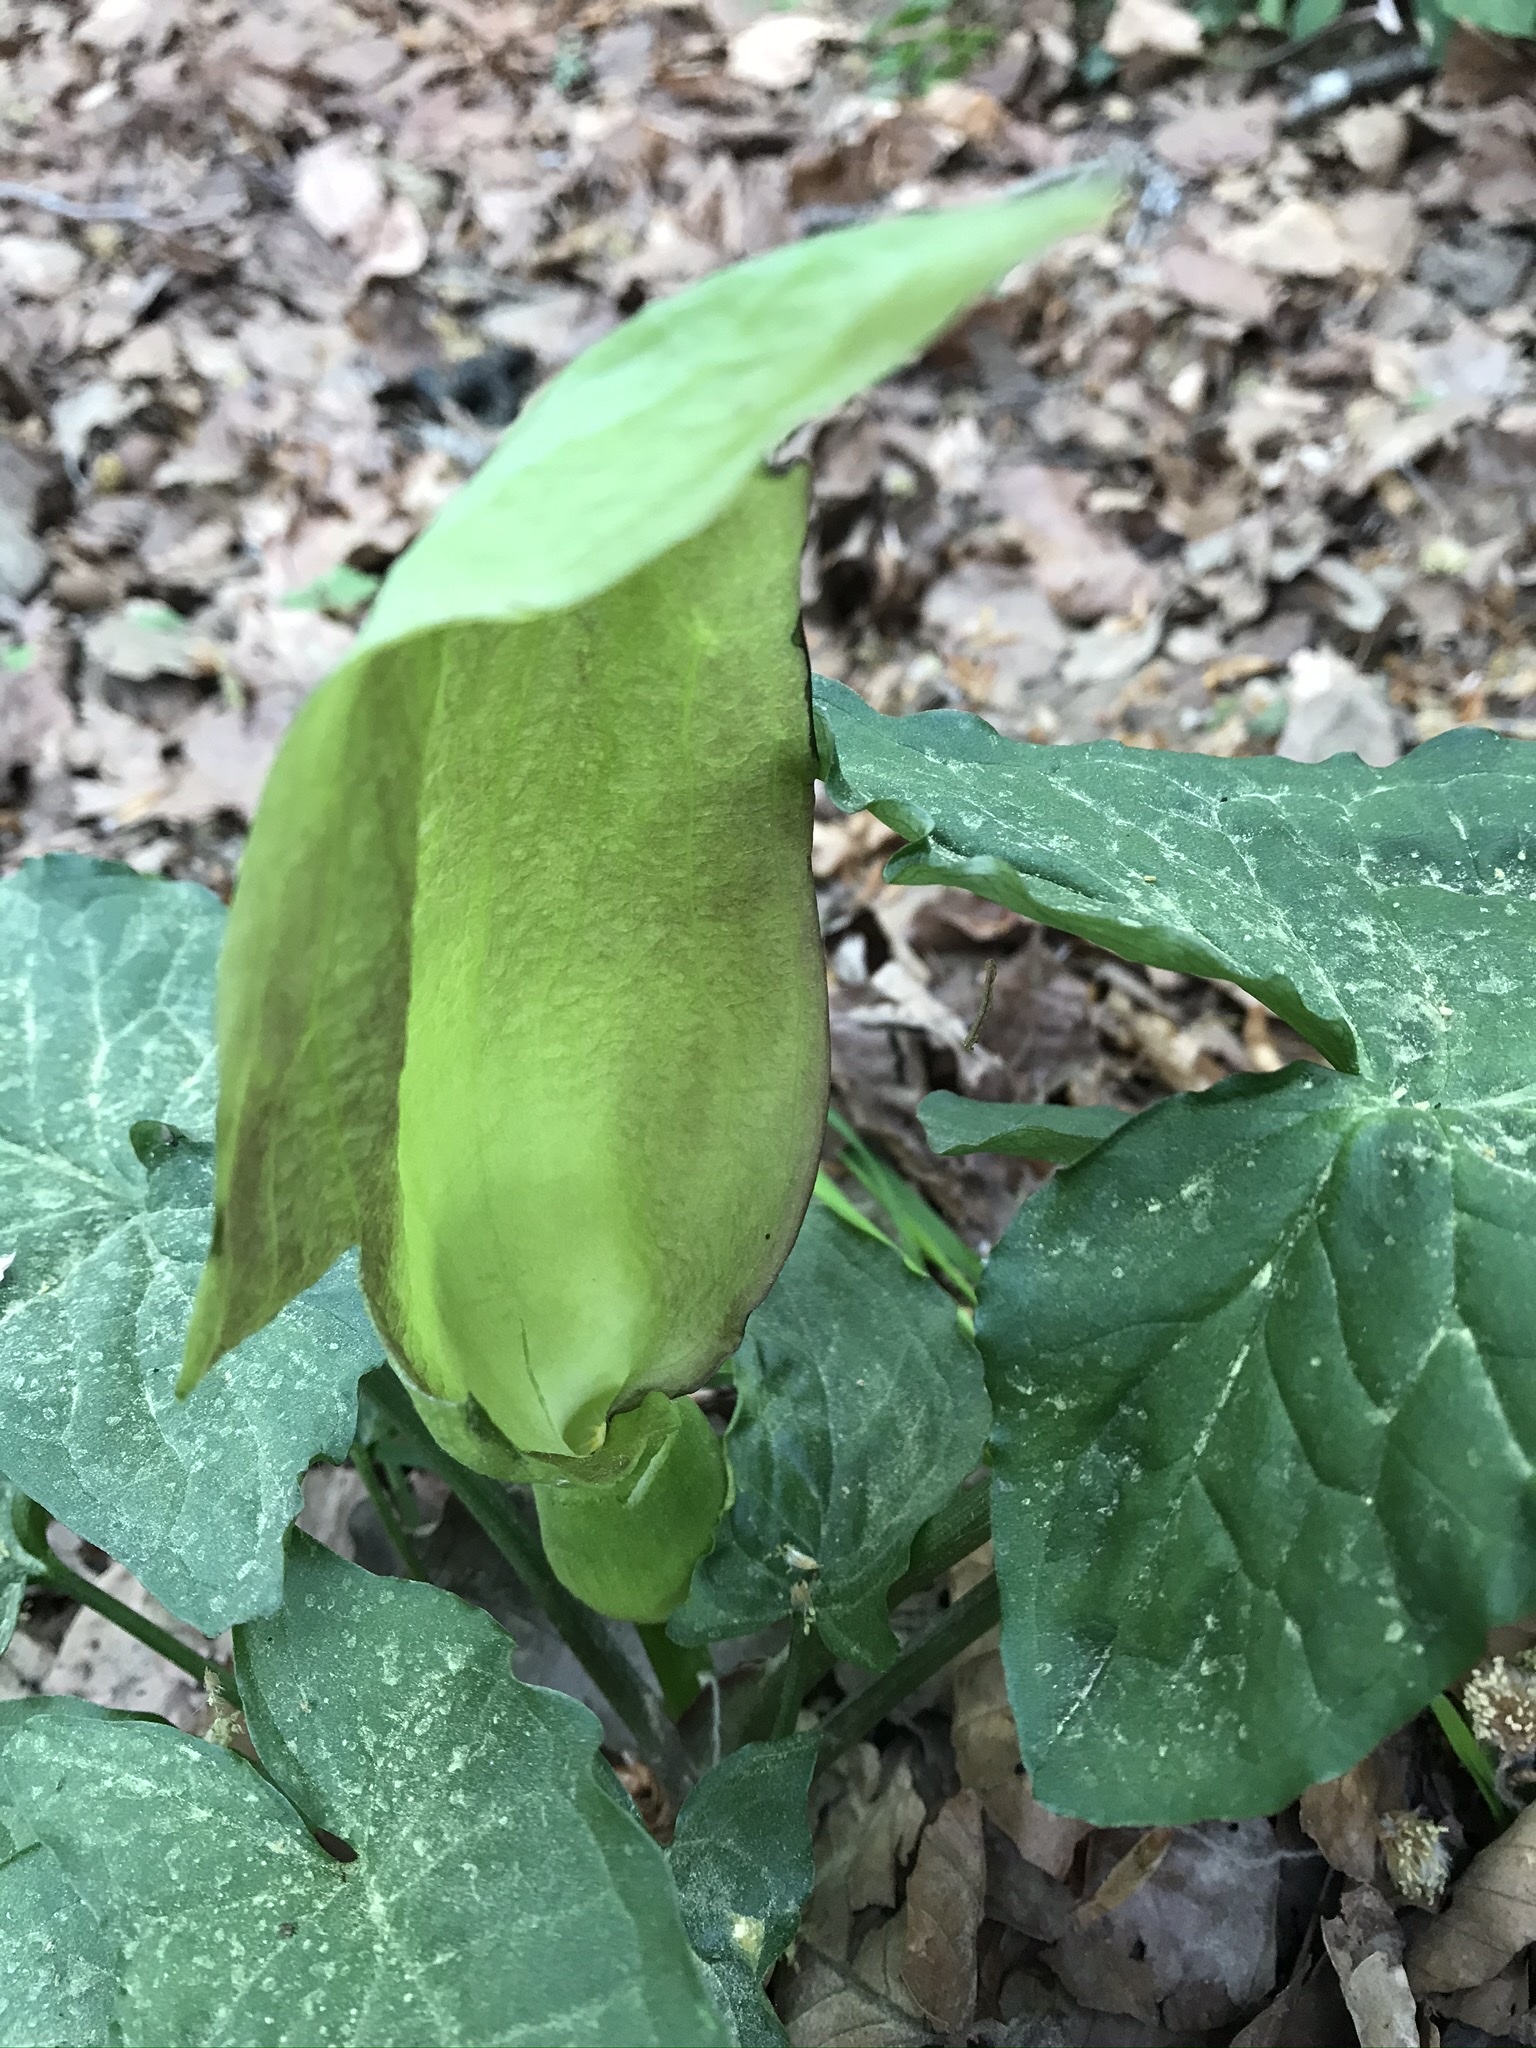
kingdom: Plantae
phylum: Tracheophyta
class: Liliopsida
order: Alismatales
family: Araceae
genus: Arum
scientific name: Arum maculatum
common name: Lords-and-ladies
